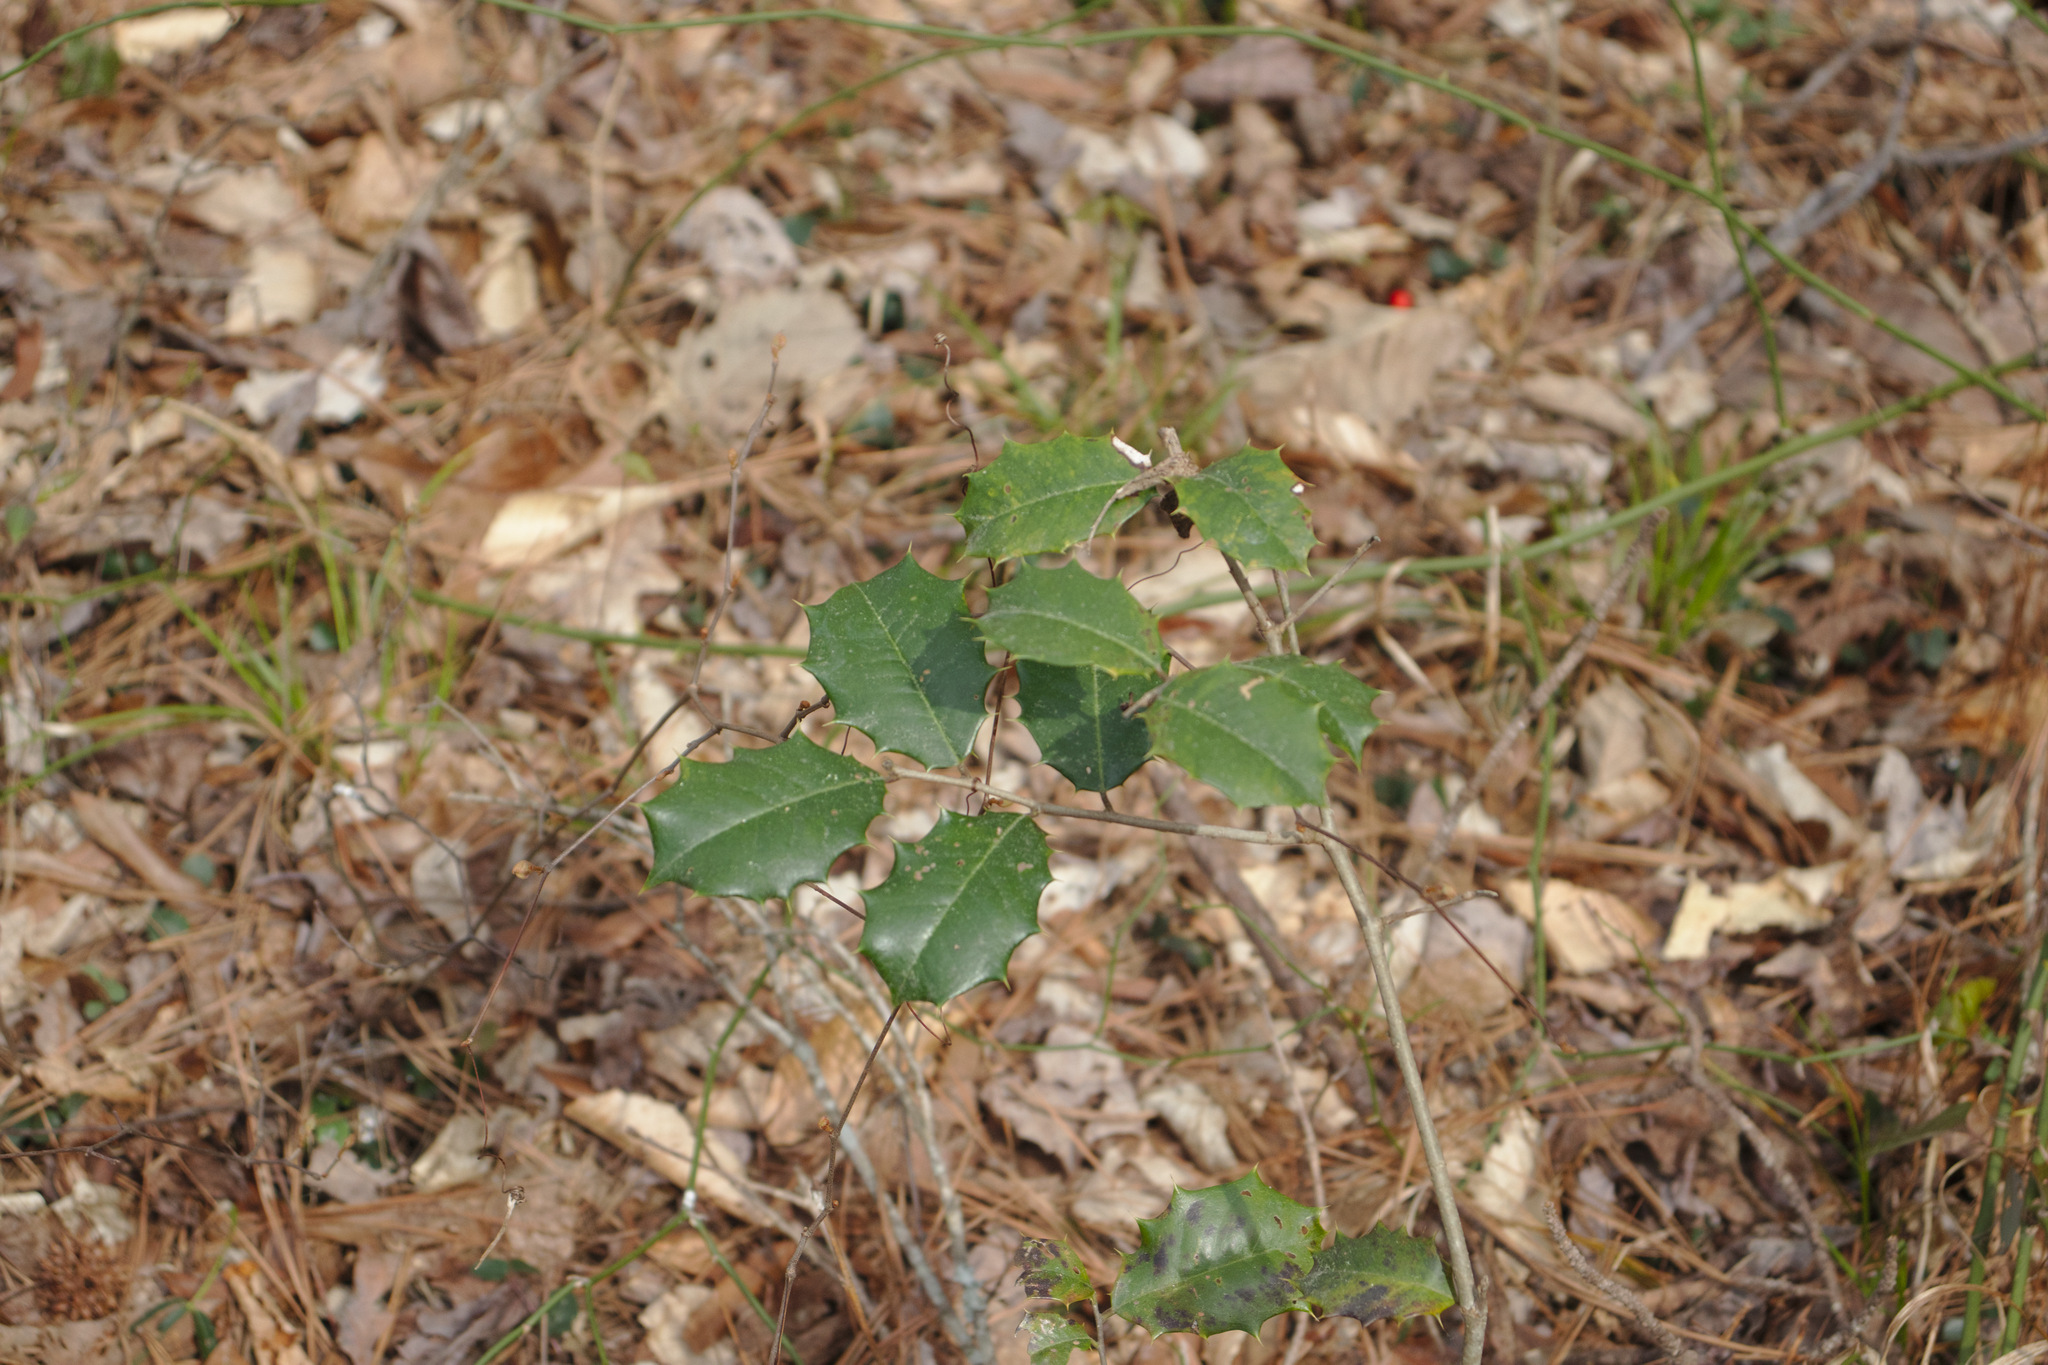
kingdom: Plantae
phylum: Tracheophyta
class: Magnoliopsida
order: Aquifoliales
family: Aquifoliaceae
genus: Ilex
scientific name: Ilex opaca
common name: American holly
